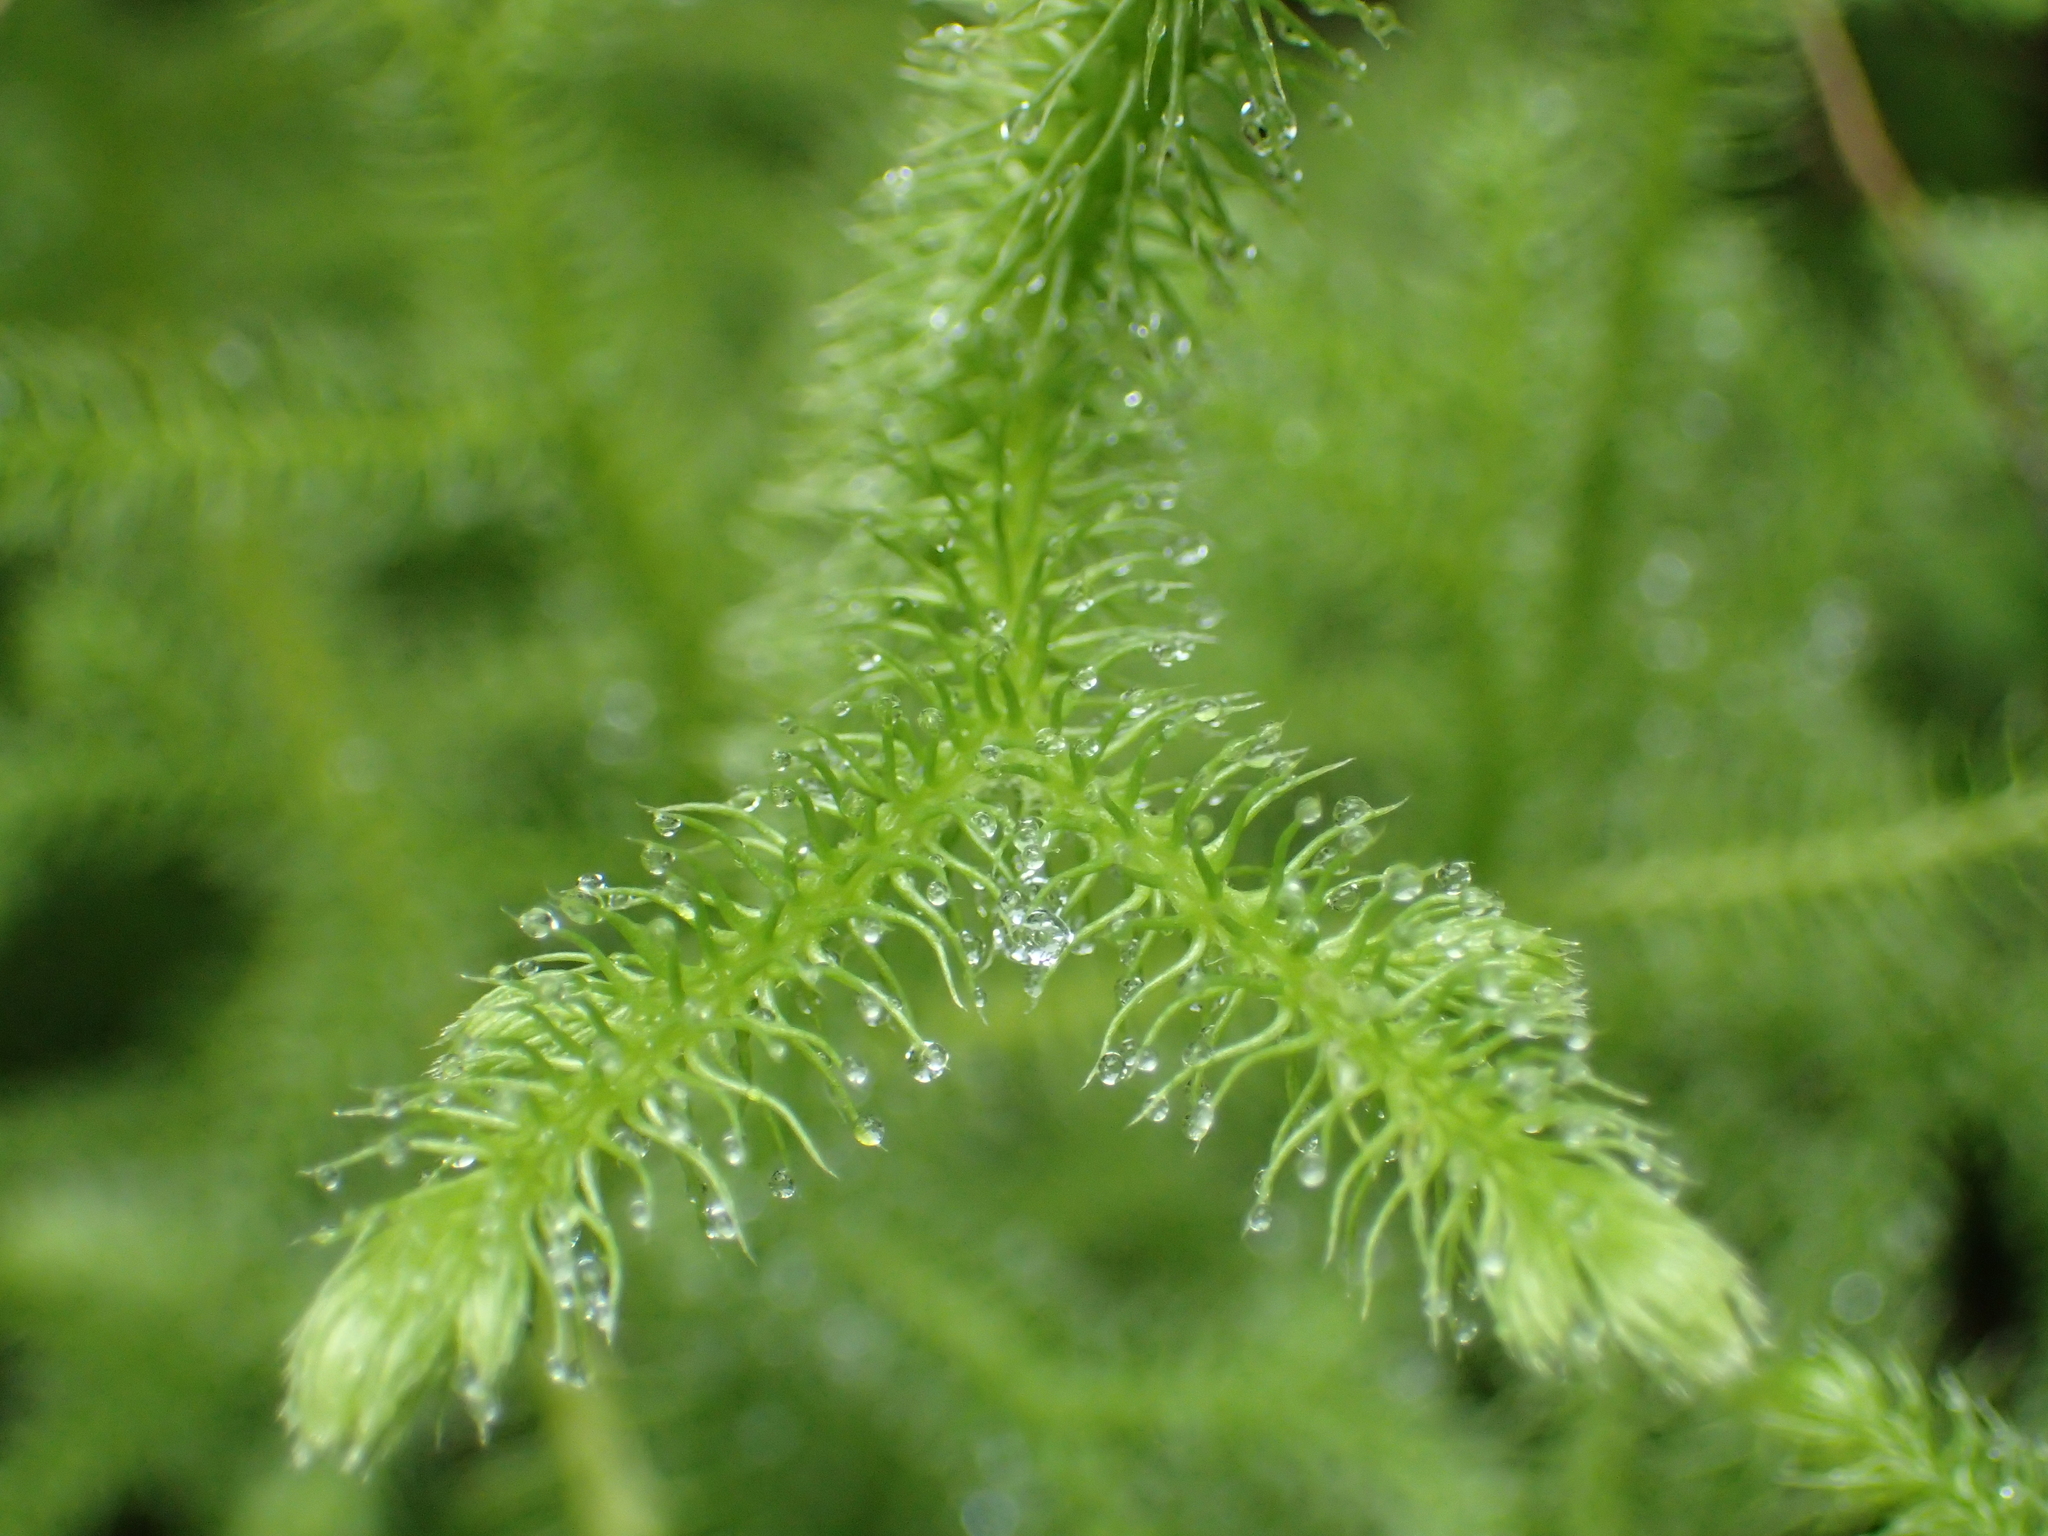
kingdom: Plantae
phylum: Tracheophyta
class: Lycopodiopsida
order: Lycopodiales
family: Lycopodiaceae
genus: Palhinhaea
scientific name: Palhinhaea cernua
